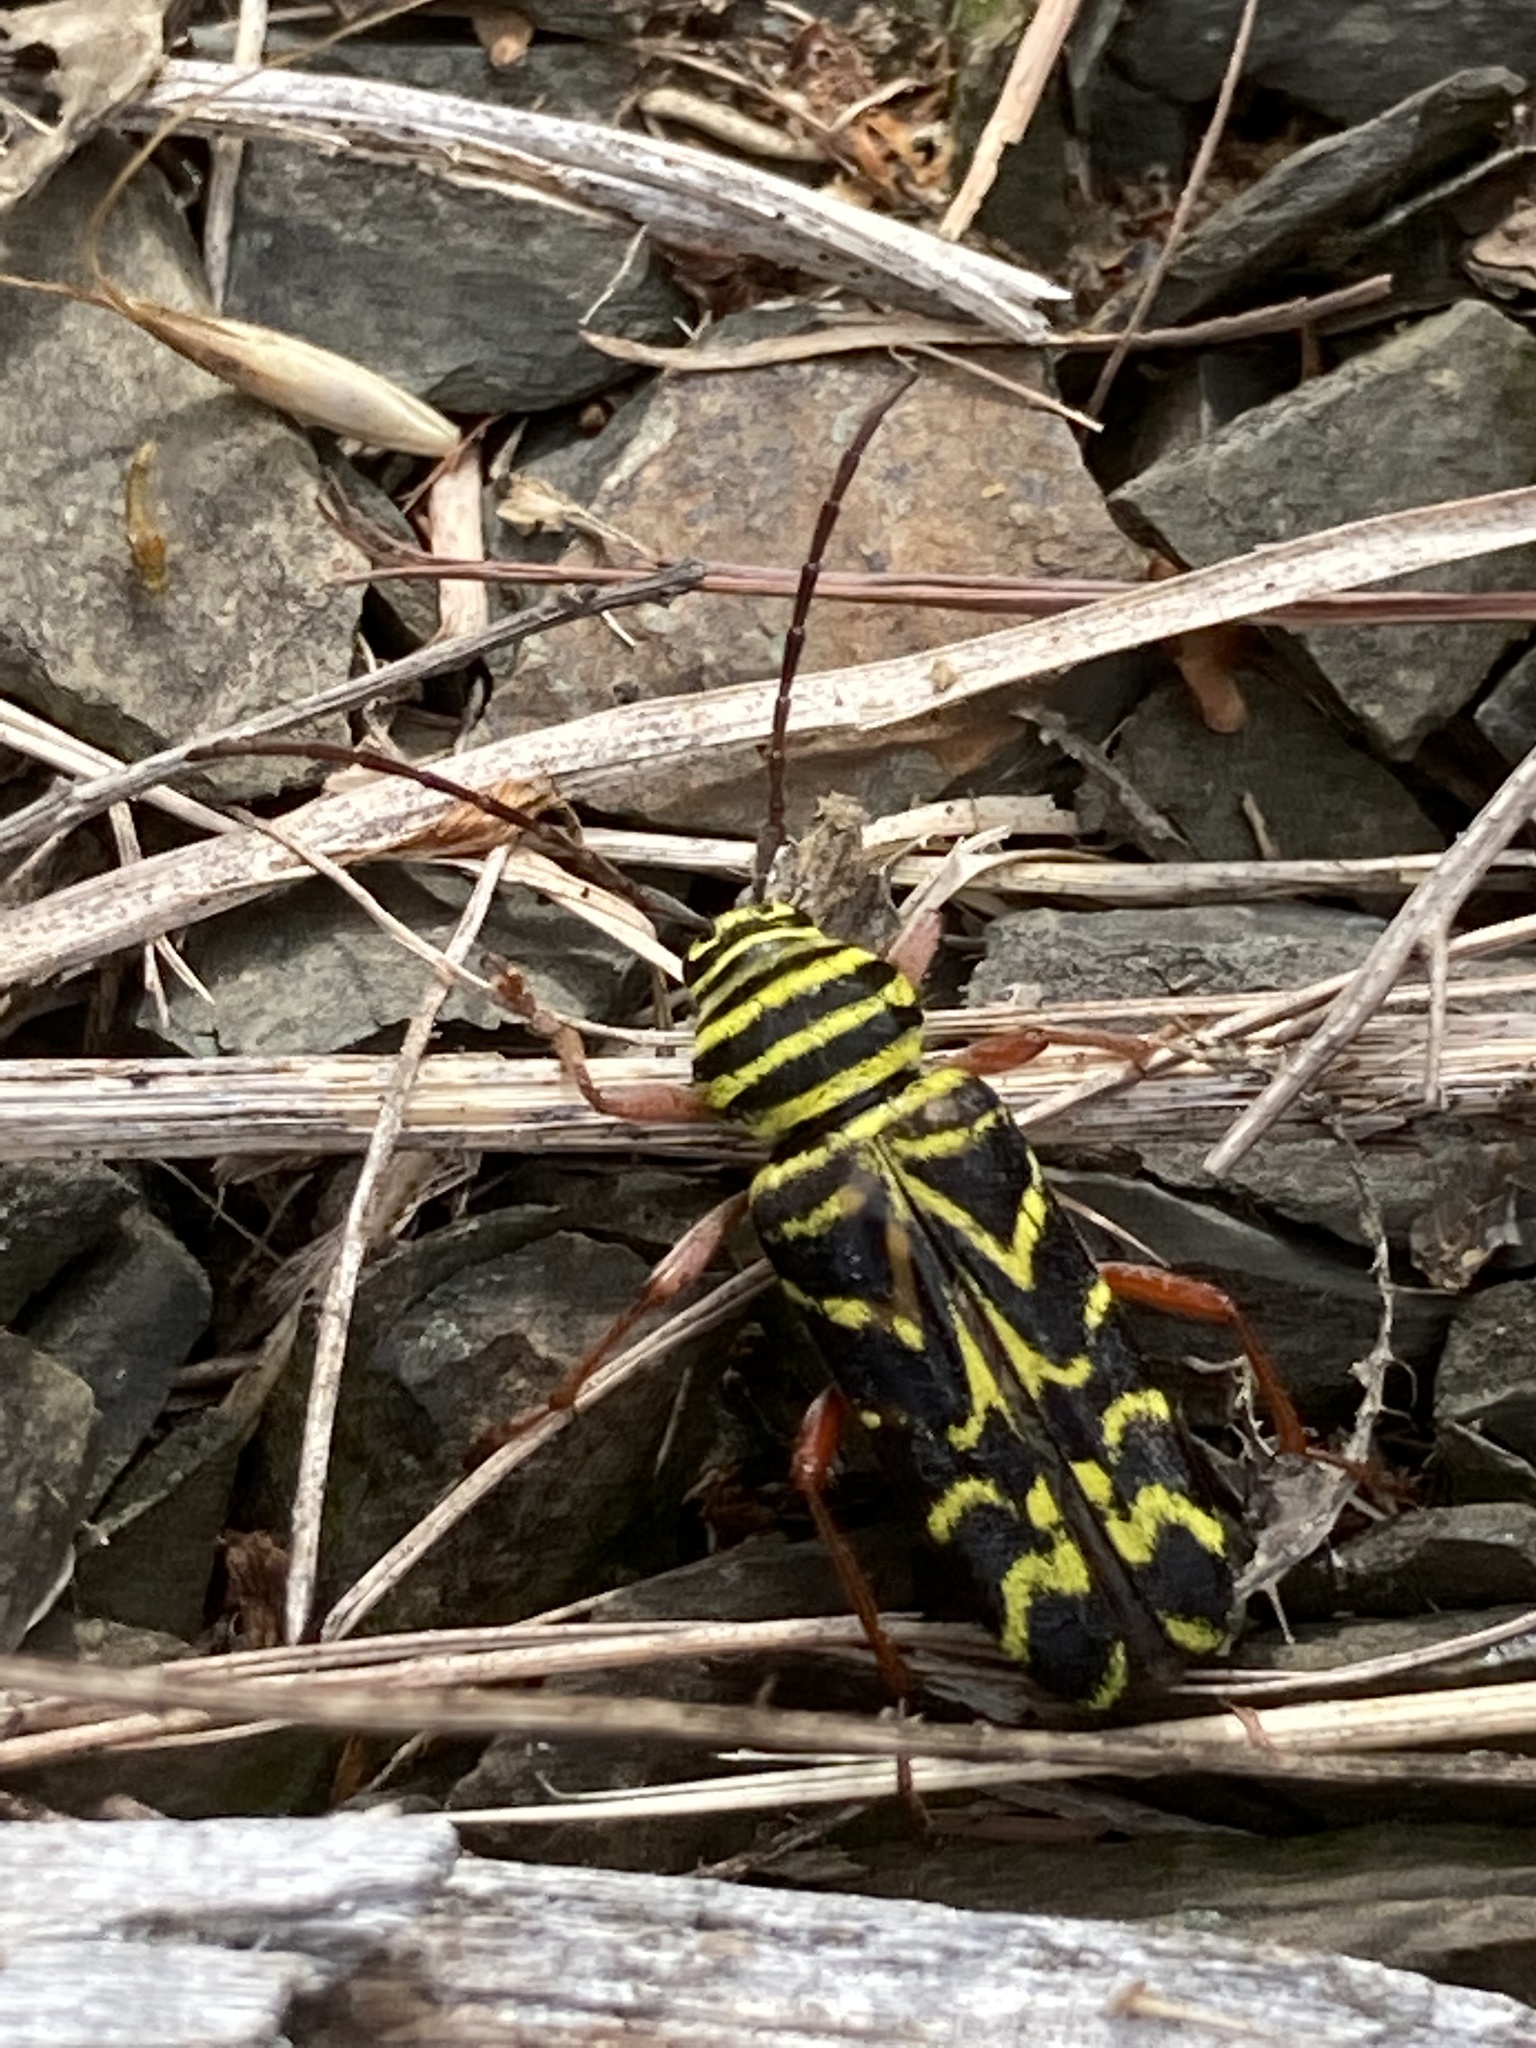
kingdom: Animalia
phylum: Arthropoda
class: Insecta
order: Coleoptera
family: Cerambycidae
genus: Megacyllene
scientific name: Megacyllene robiniae
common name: Locust borer
